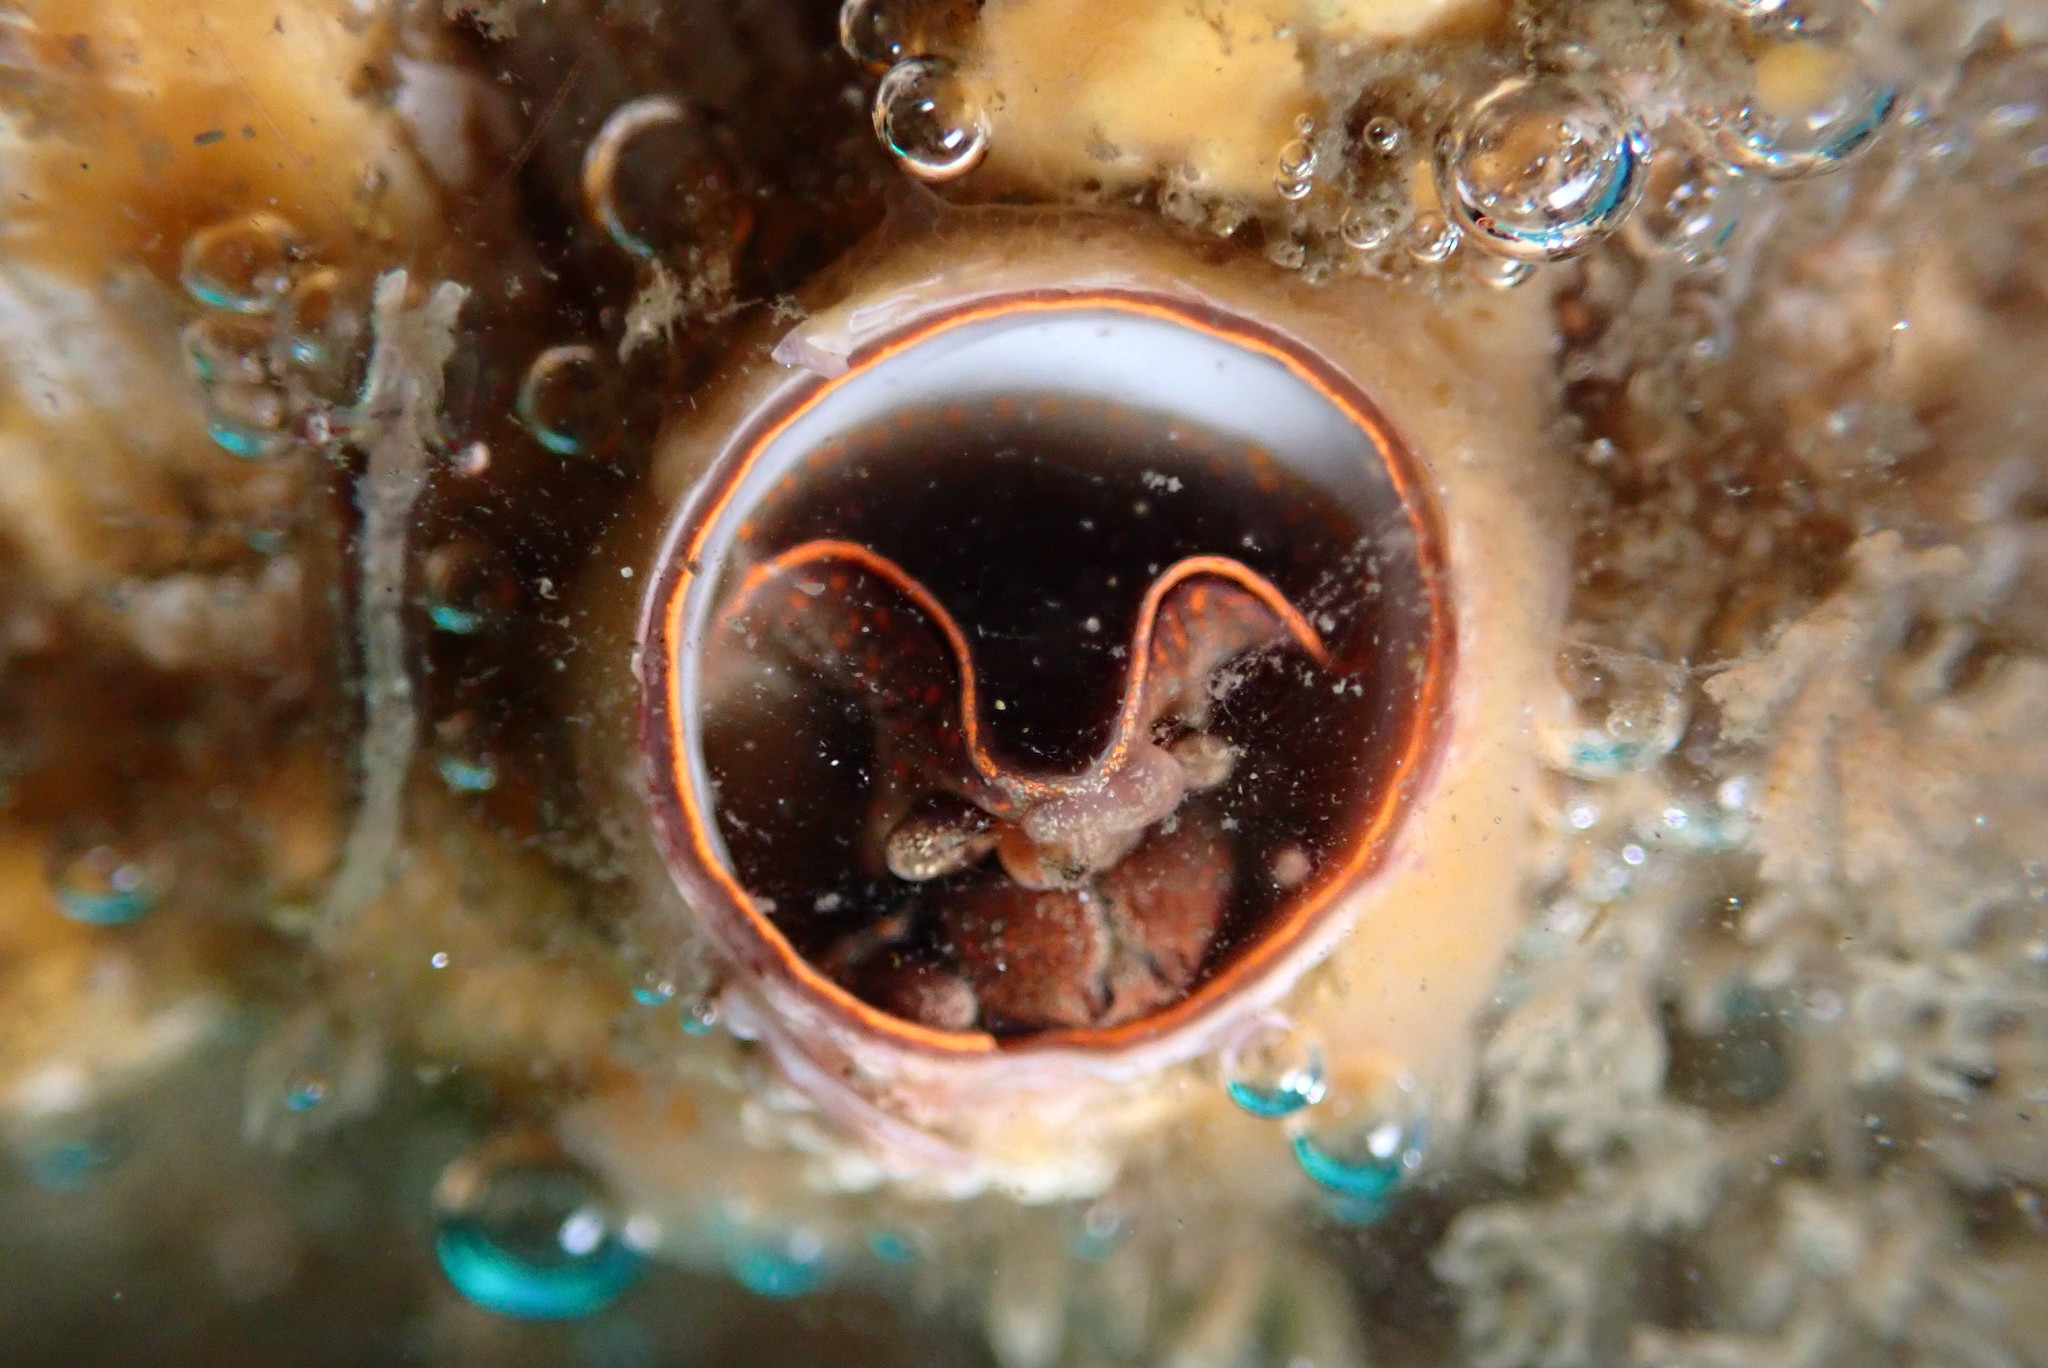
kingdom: Animalia
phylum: Mollusca
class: Gastropoda
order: Littorinimorpha
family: Vermetidae
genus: Thylacodes
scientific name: Thylacodes squamigerus
